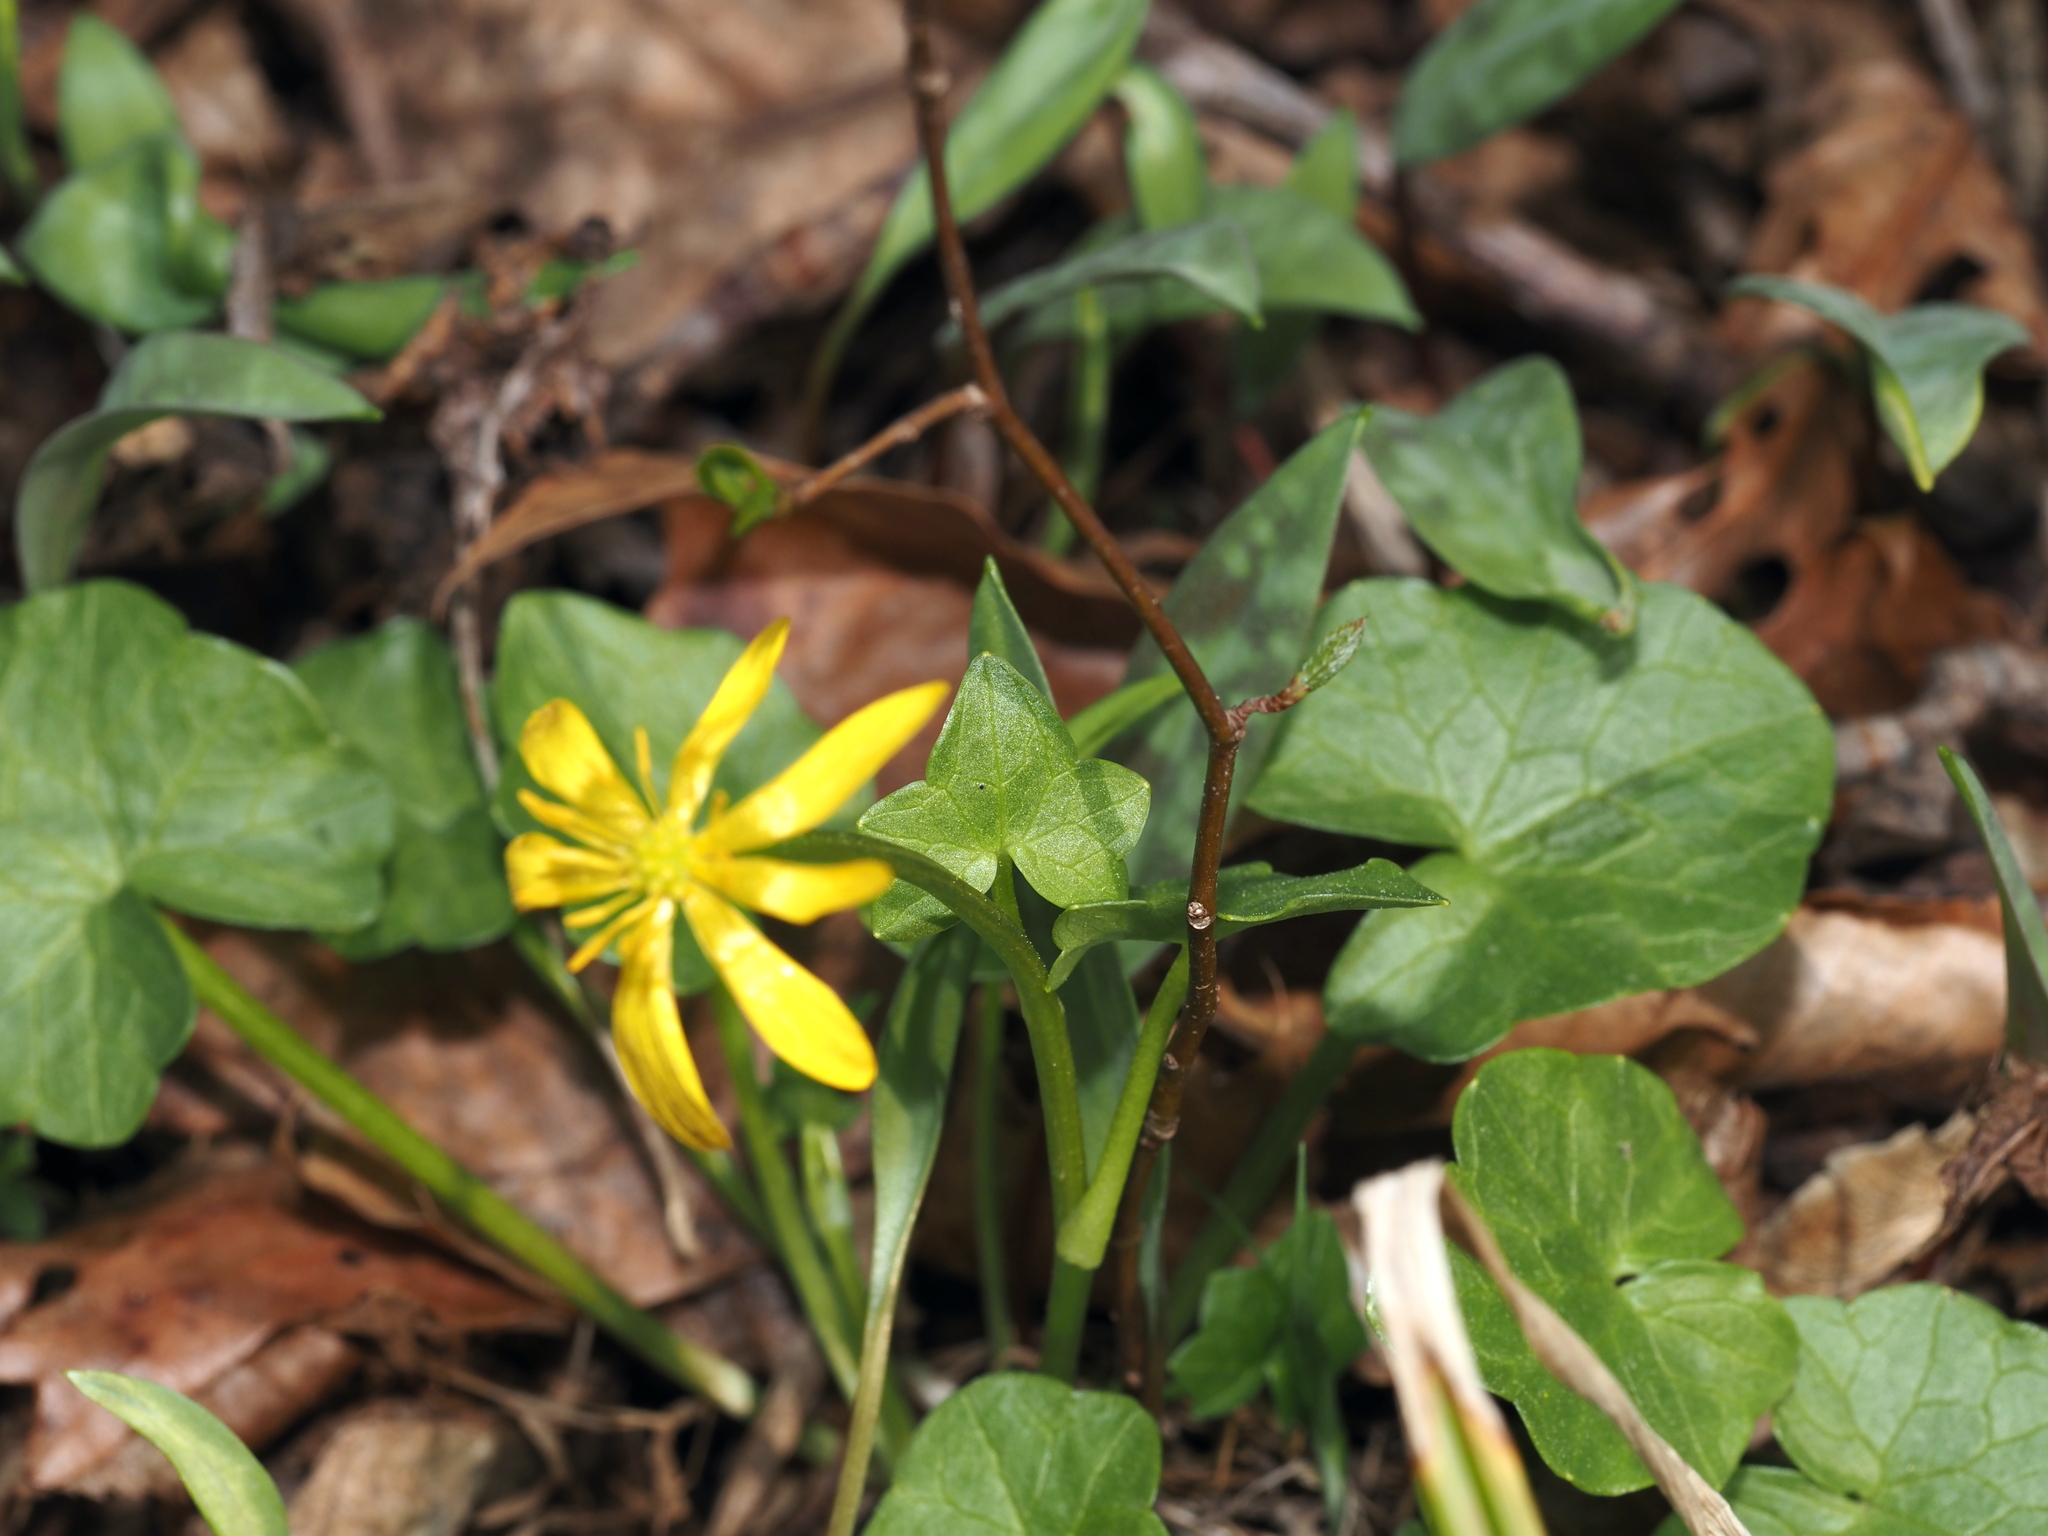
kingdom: Plantae
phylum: Tracheophyta
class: Magnoliopsida
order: Ranunculales
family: Ranunculaceae
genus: Ficaria
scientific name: Ficaria verna
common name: Lesser celandine
